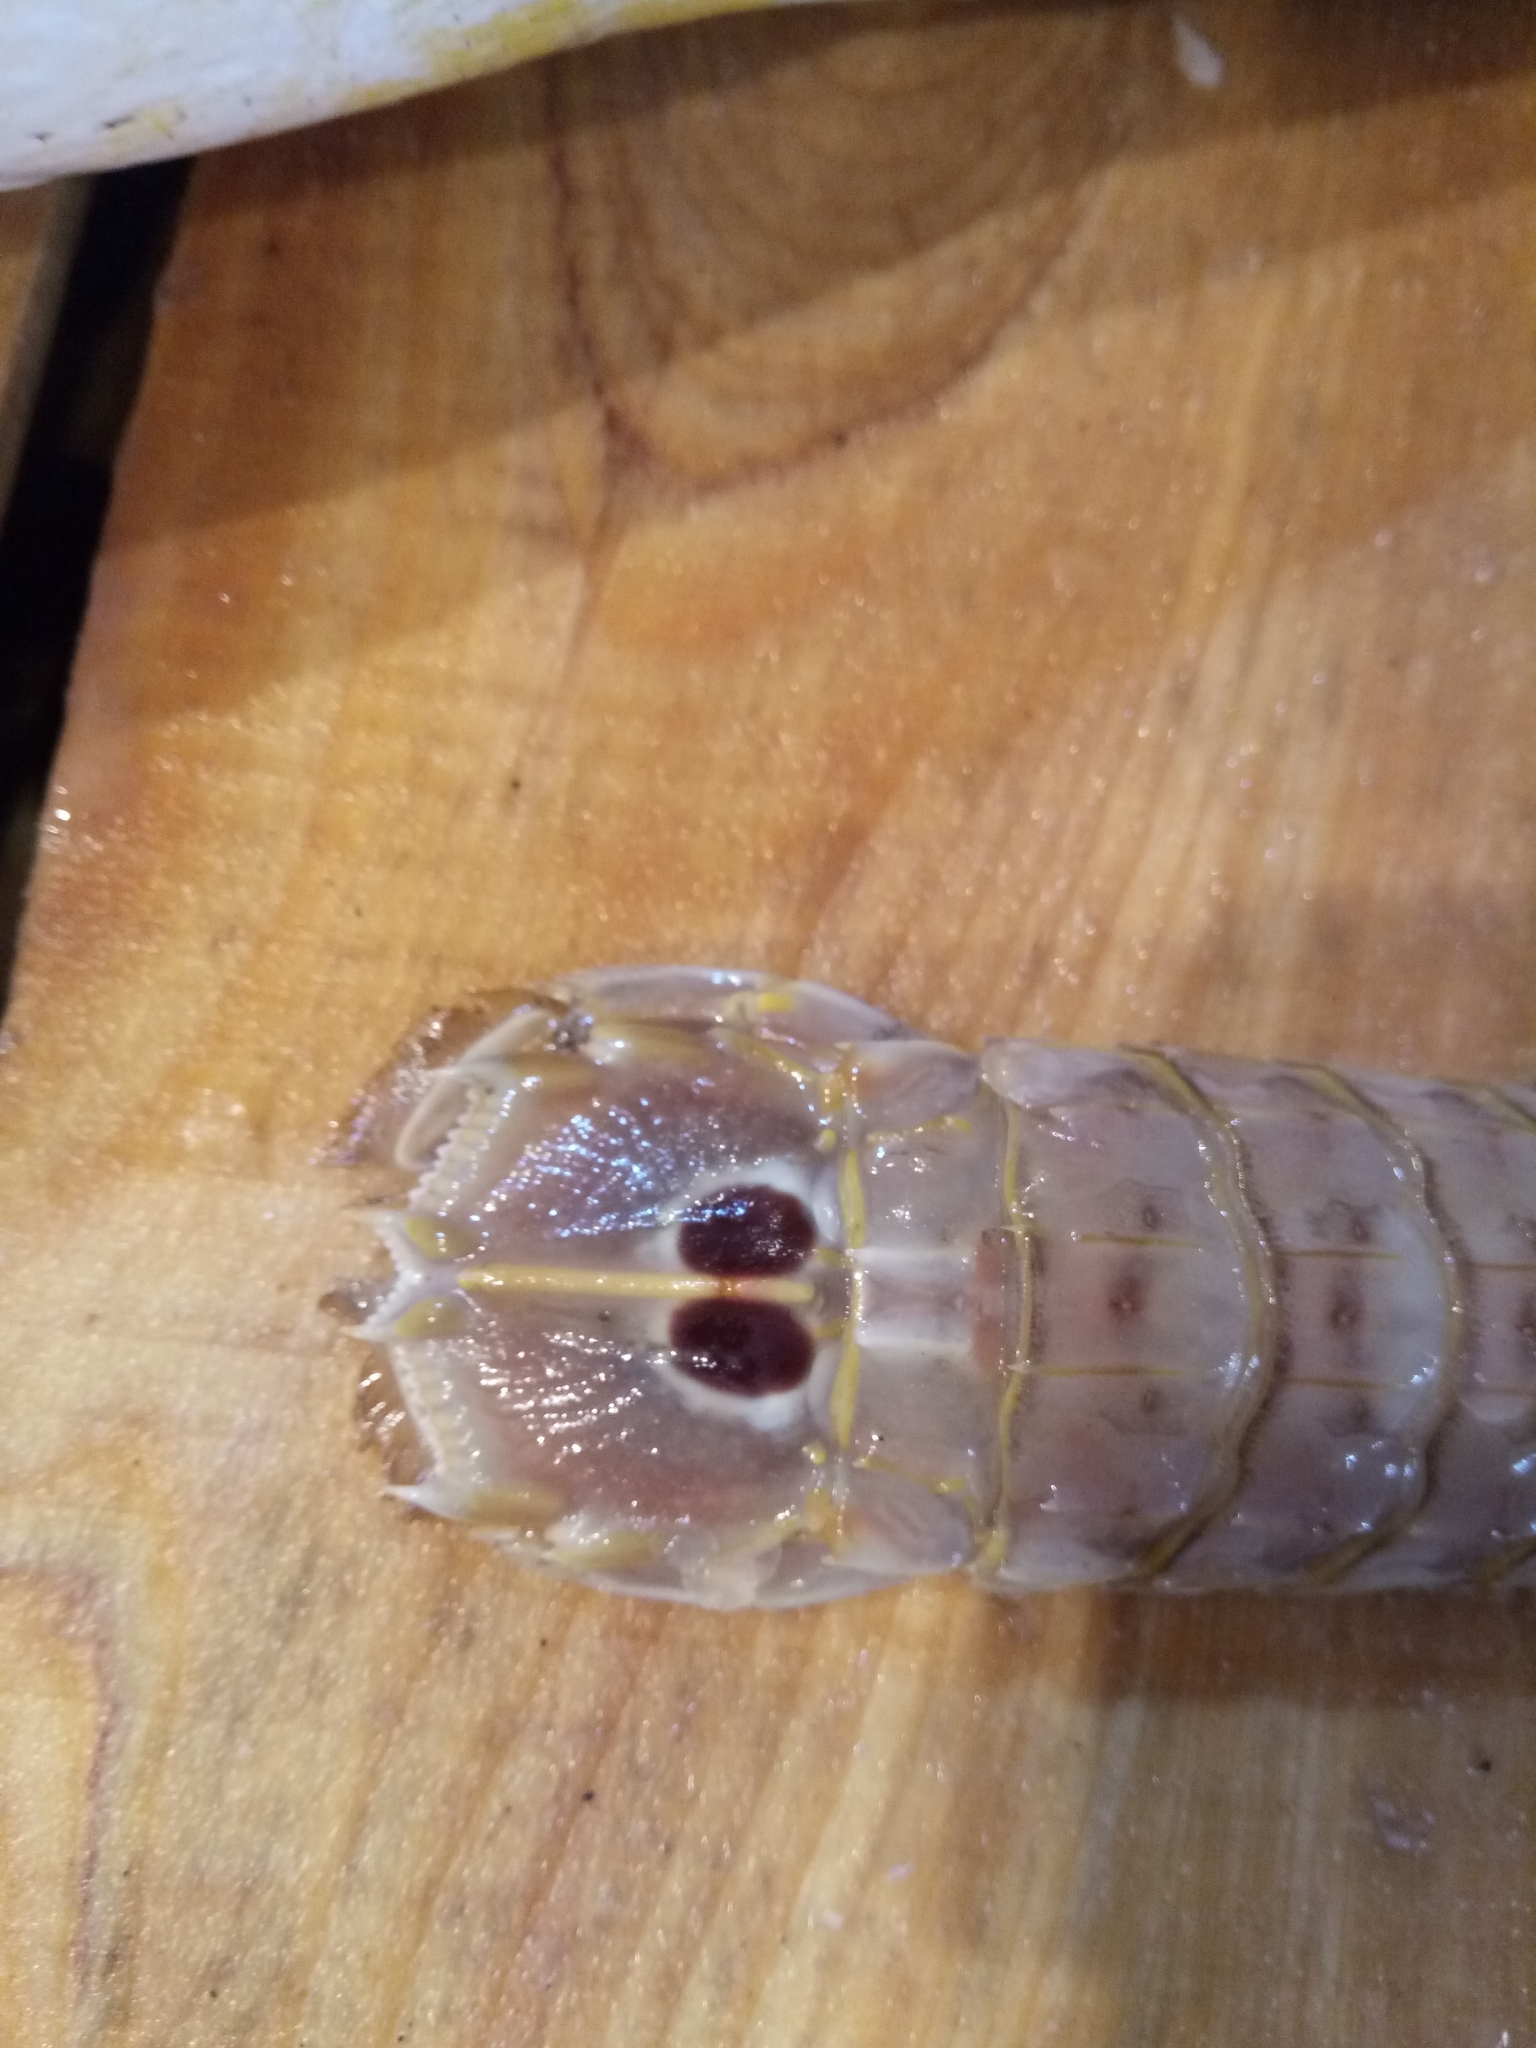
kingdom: Animalia
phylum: Arthropoda
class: Malacostraca
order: Stomatopoda
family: Squillidae
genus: Squilla
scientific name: Squilla mantis
